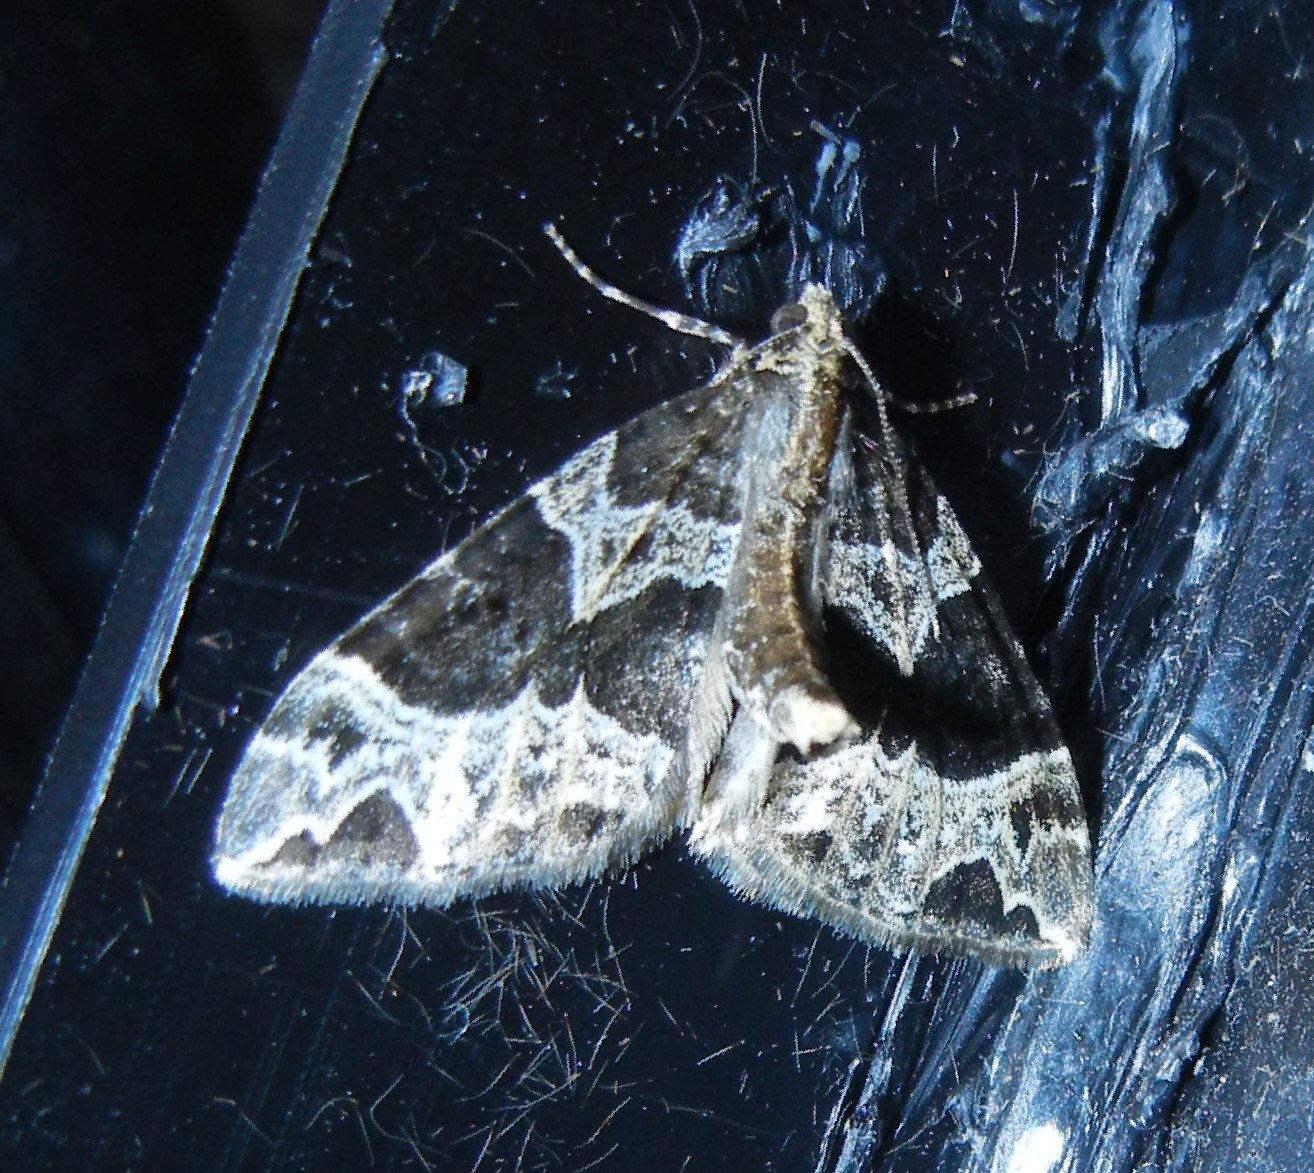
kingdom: Animalia
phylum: Arthropoda
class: Insecta
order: Lepidoptera
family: Geometridae
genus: Ecliptopera
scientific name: Ecliptopera silaceata
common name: Small phoenix
